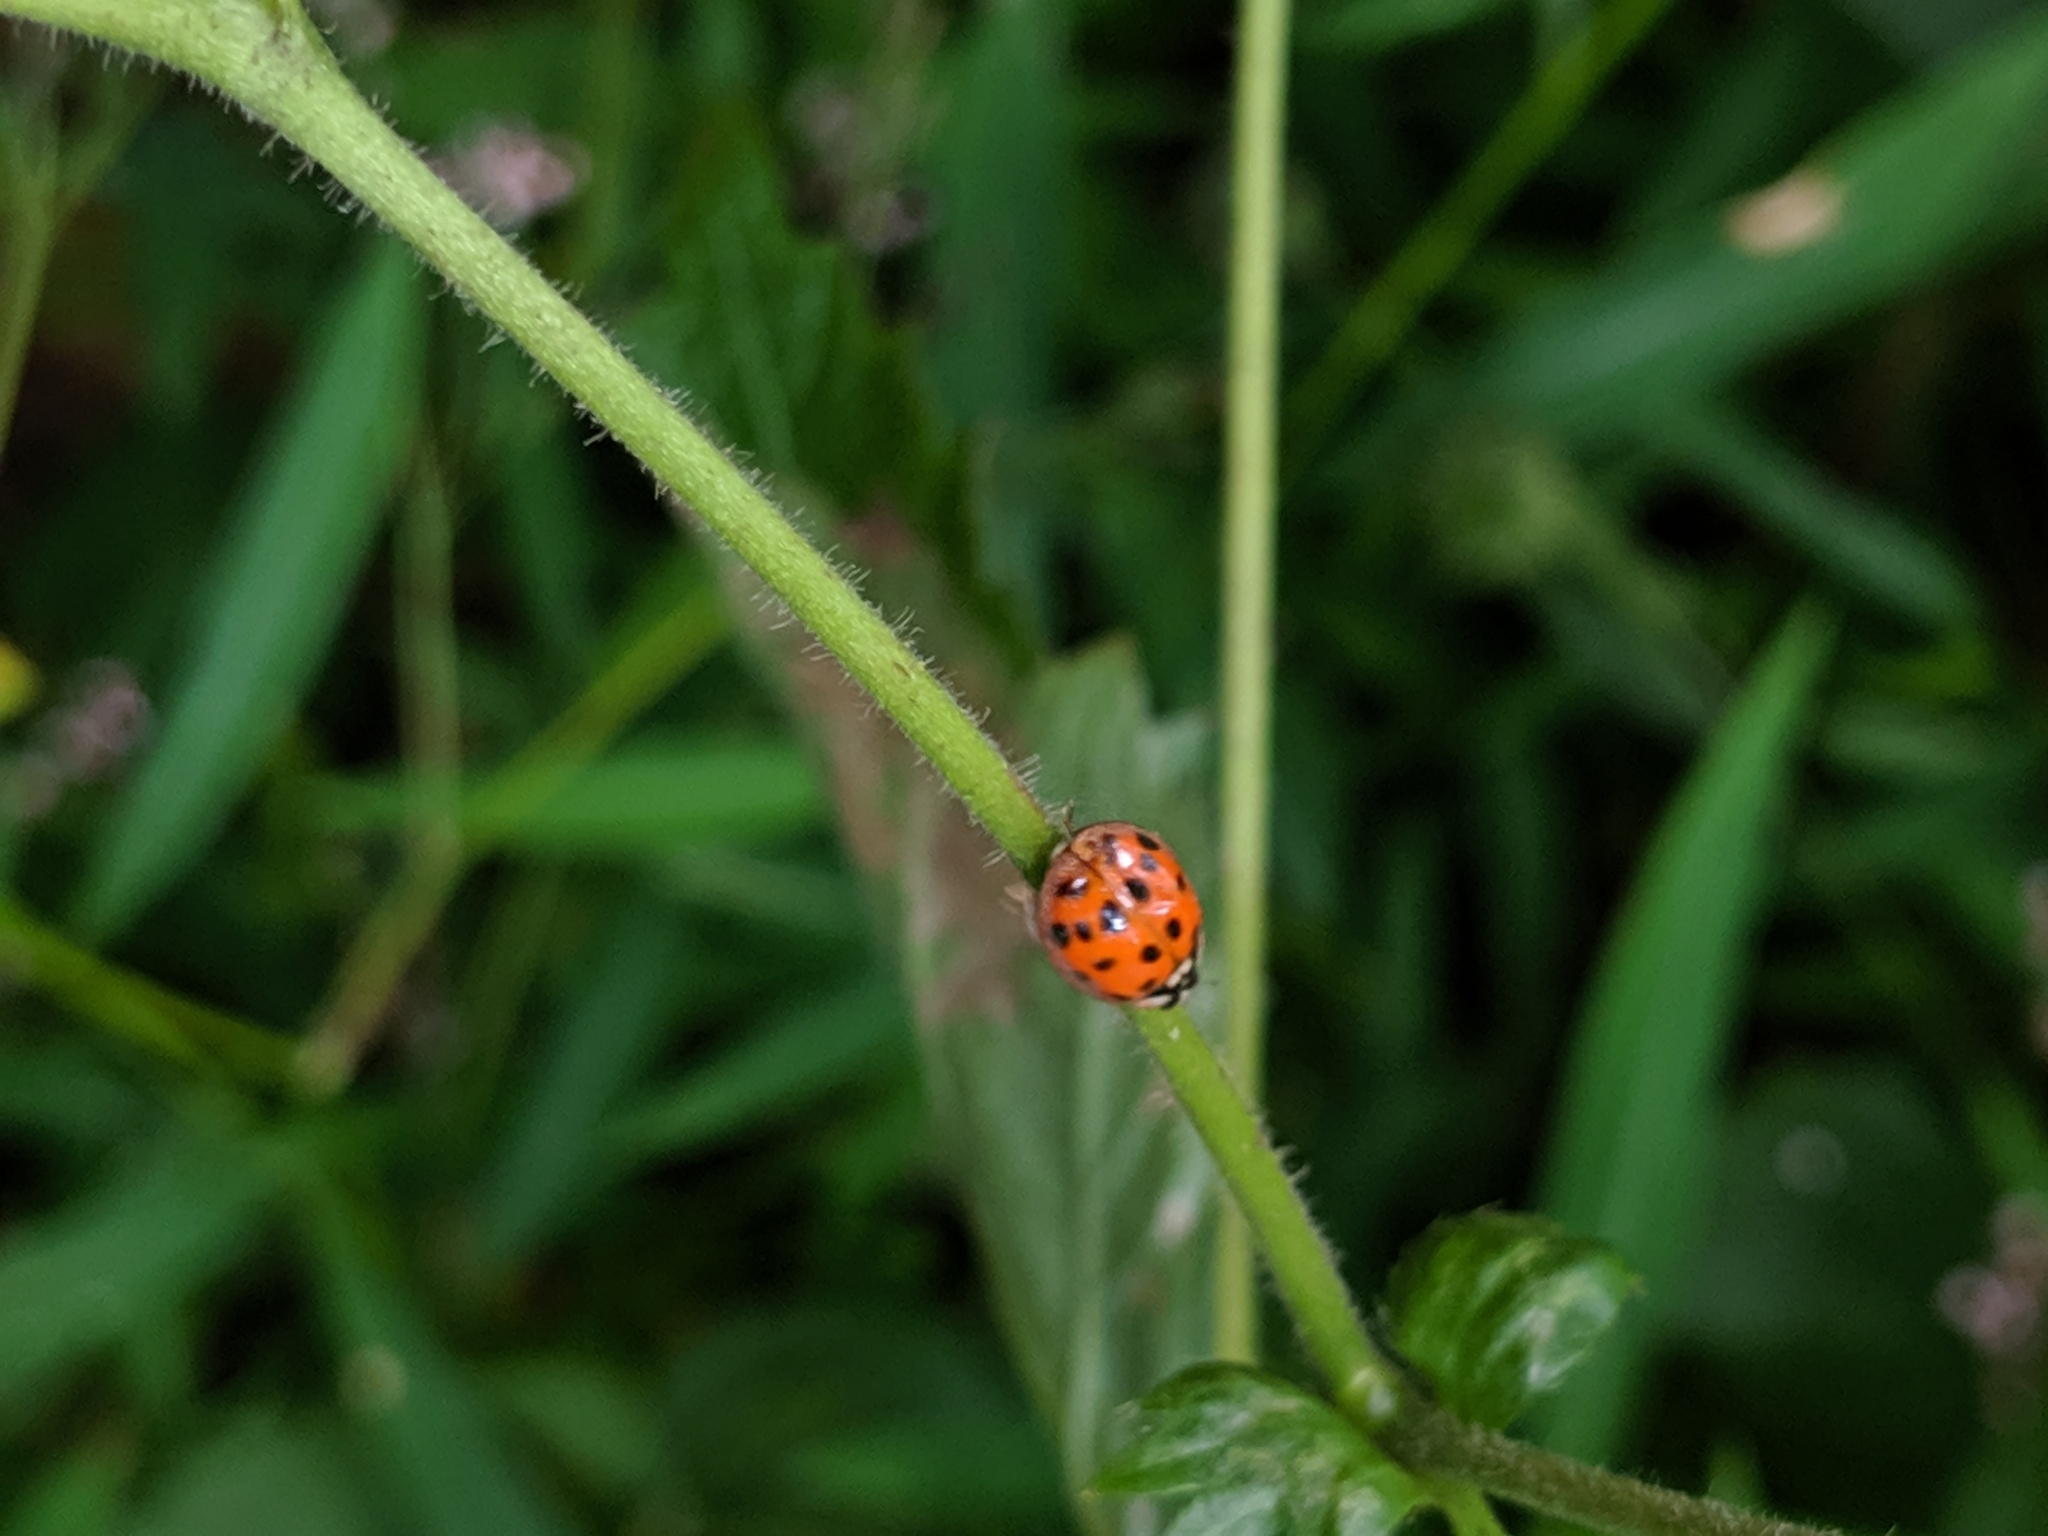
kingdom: Animalia
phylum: Arthropoda
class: Insecta
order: Coleoptera
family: Coccinellidae
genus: Harmonia
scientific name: Harmonia axyridis
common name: Harlequin ladybird
